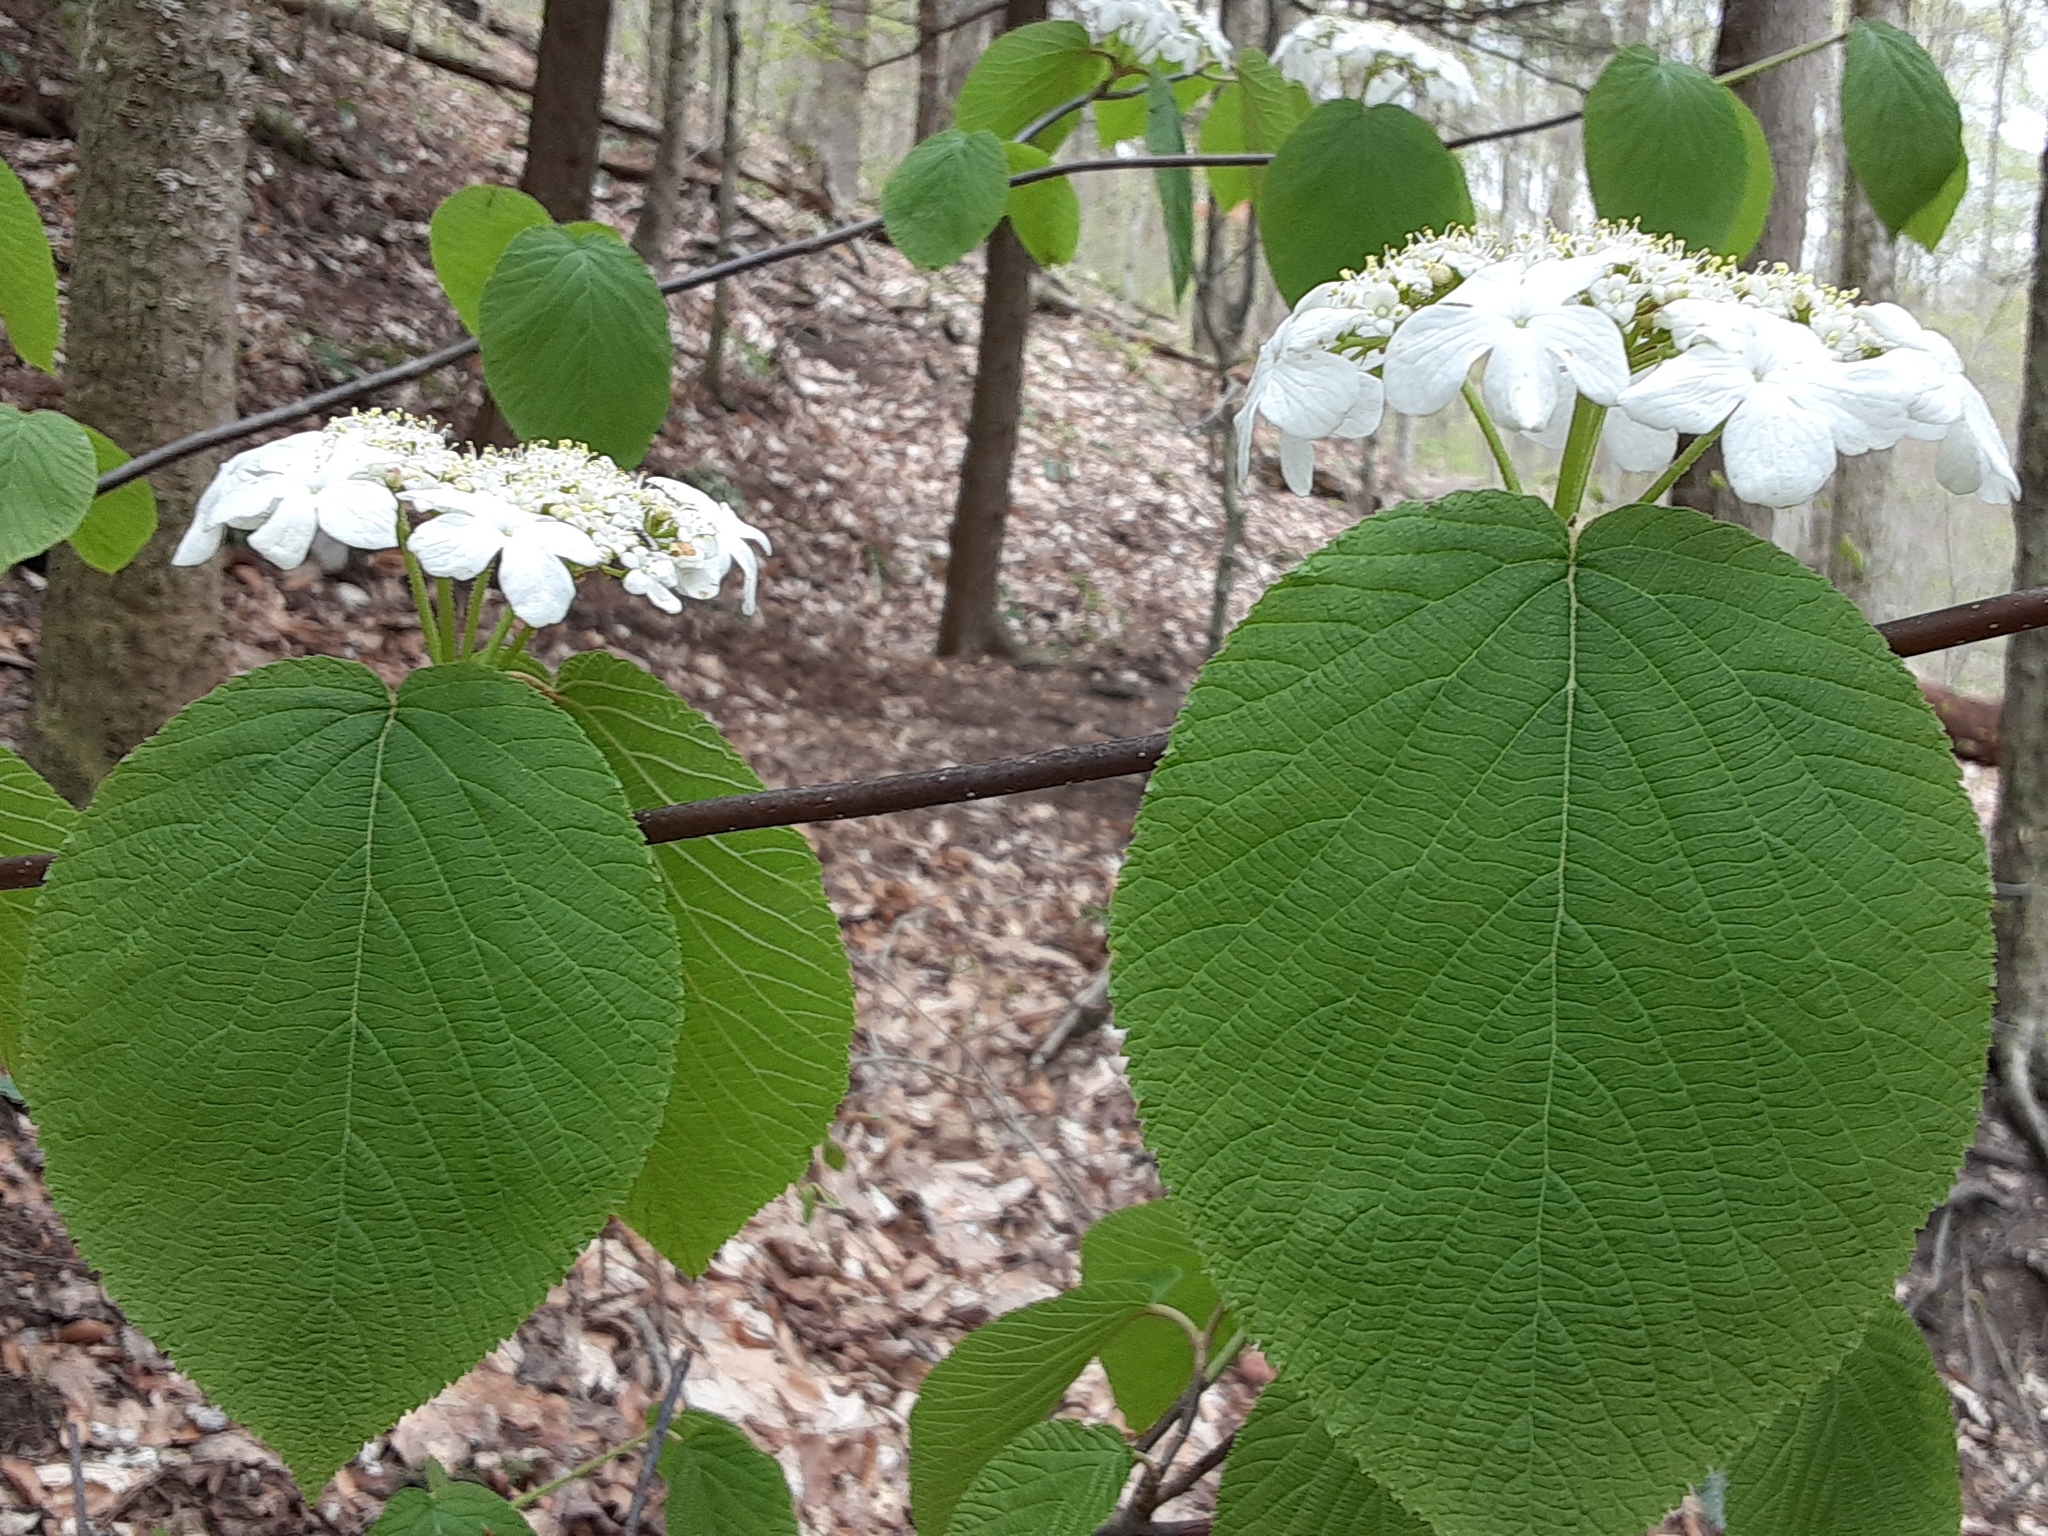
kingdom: Plantae
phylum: Tracheophyta
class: Magnoliopsida
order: Dipsacales
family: Viburnaceae
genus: Viburnum
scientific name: Viburnum lantanoides
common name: Hobblebush
